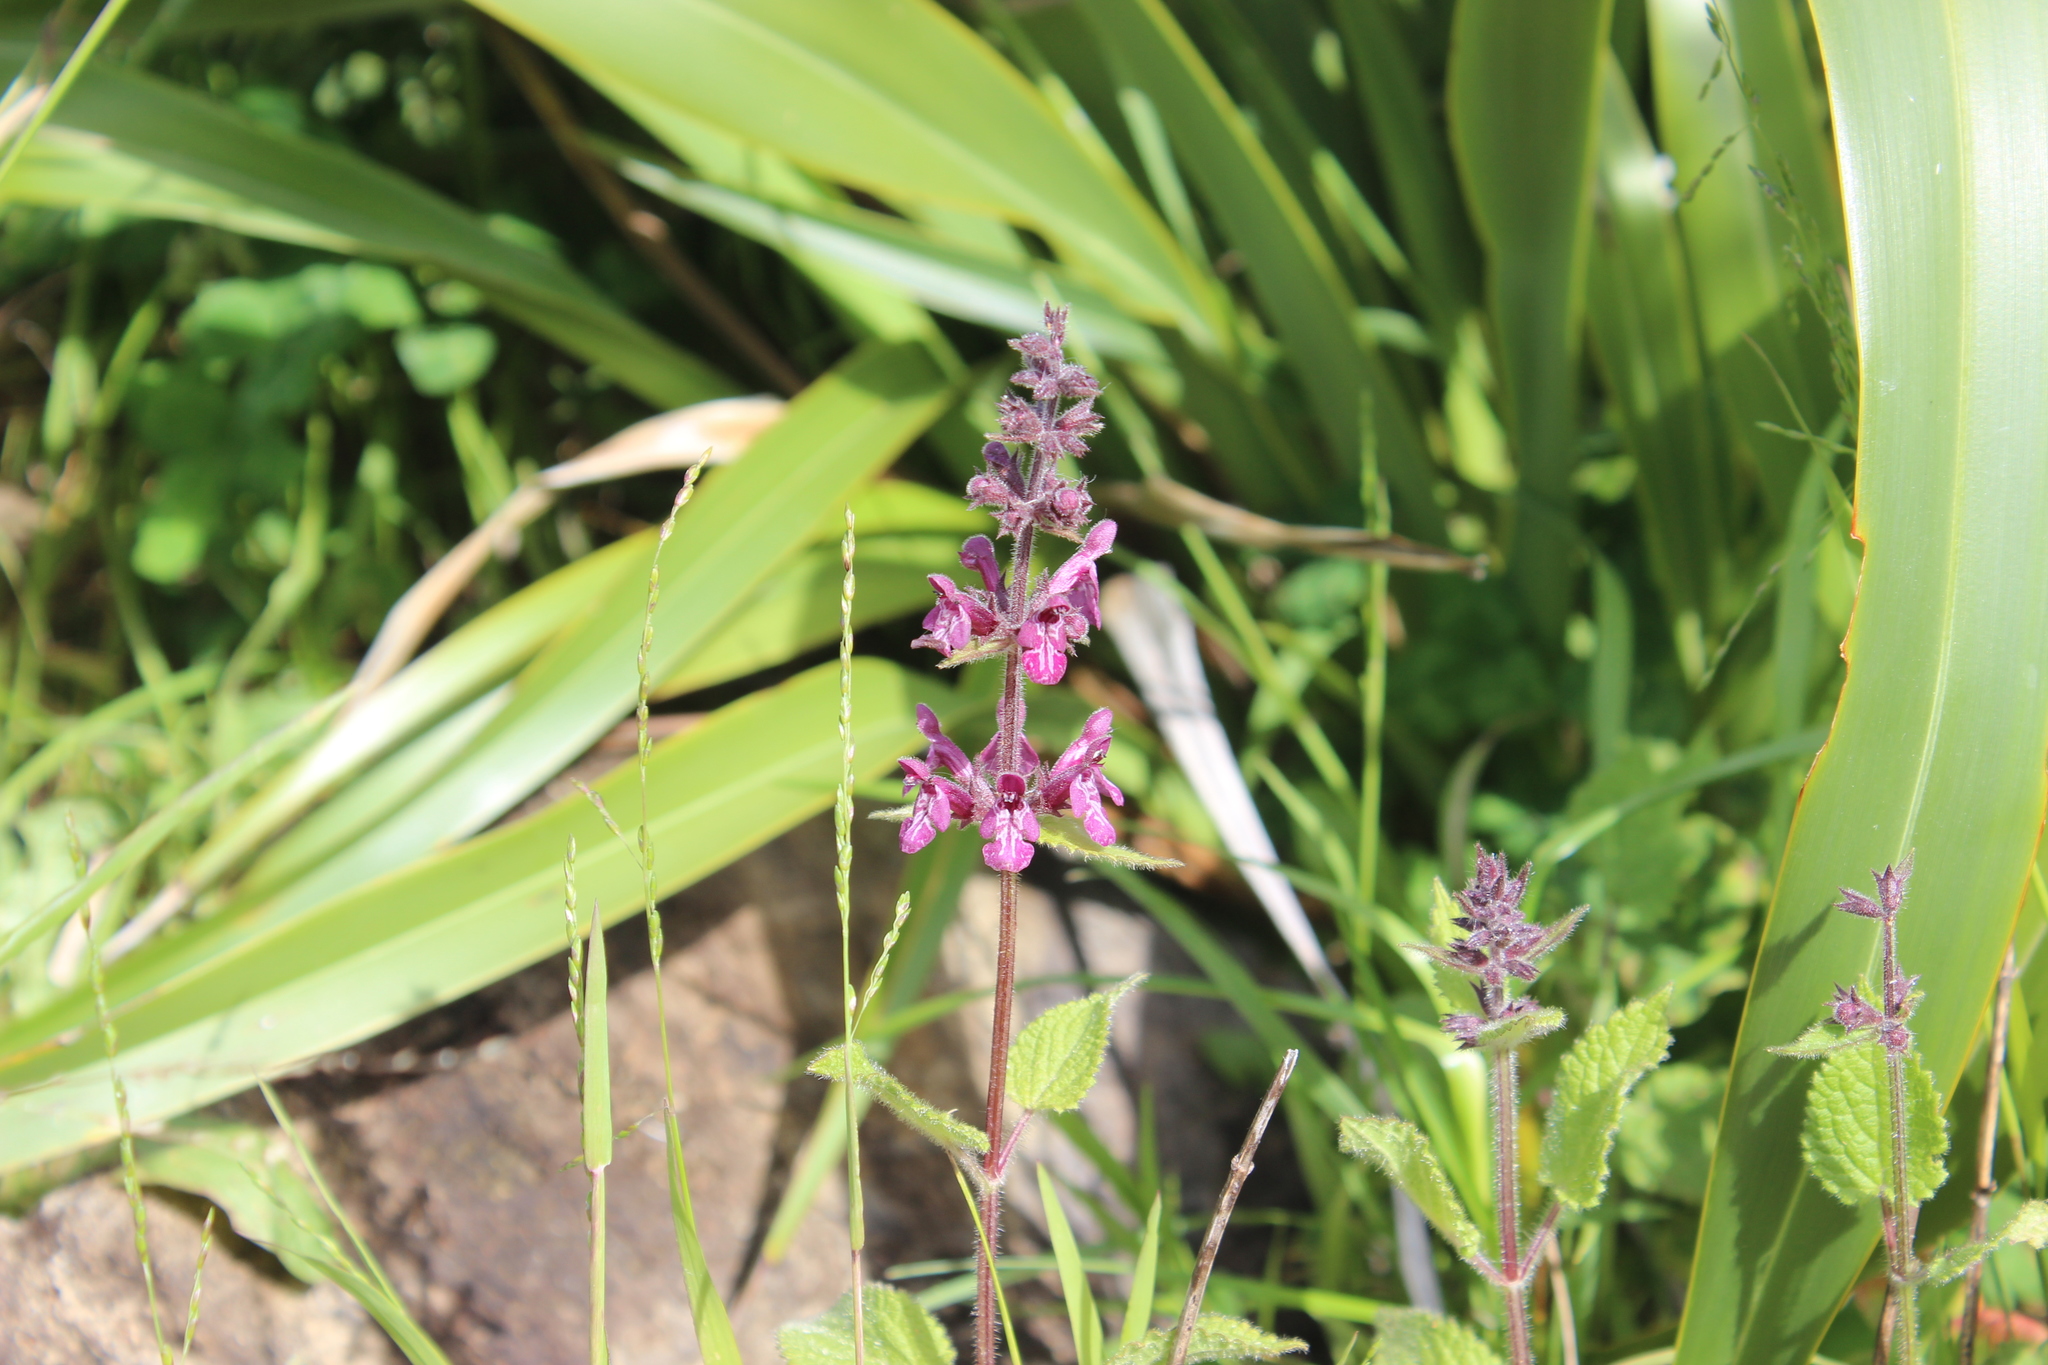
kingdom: Plantae
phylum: Tracheophyta
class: Magnoliopsida
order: Lamiales
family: Lamiaceae
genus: Stachys
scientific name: Stachys sylvatica
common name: Hedge woundwort
